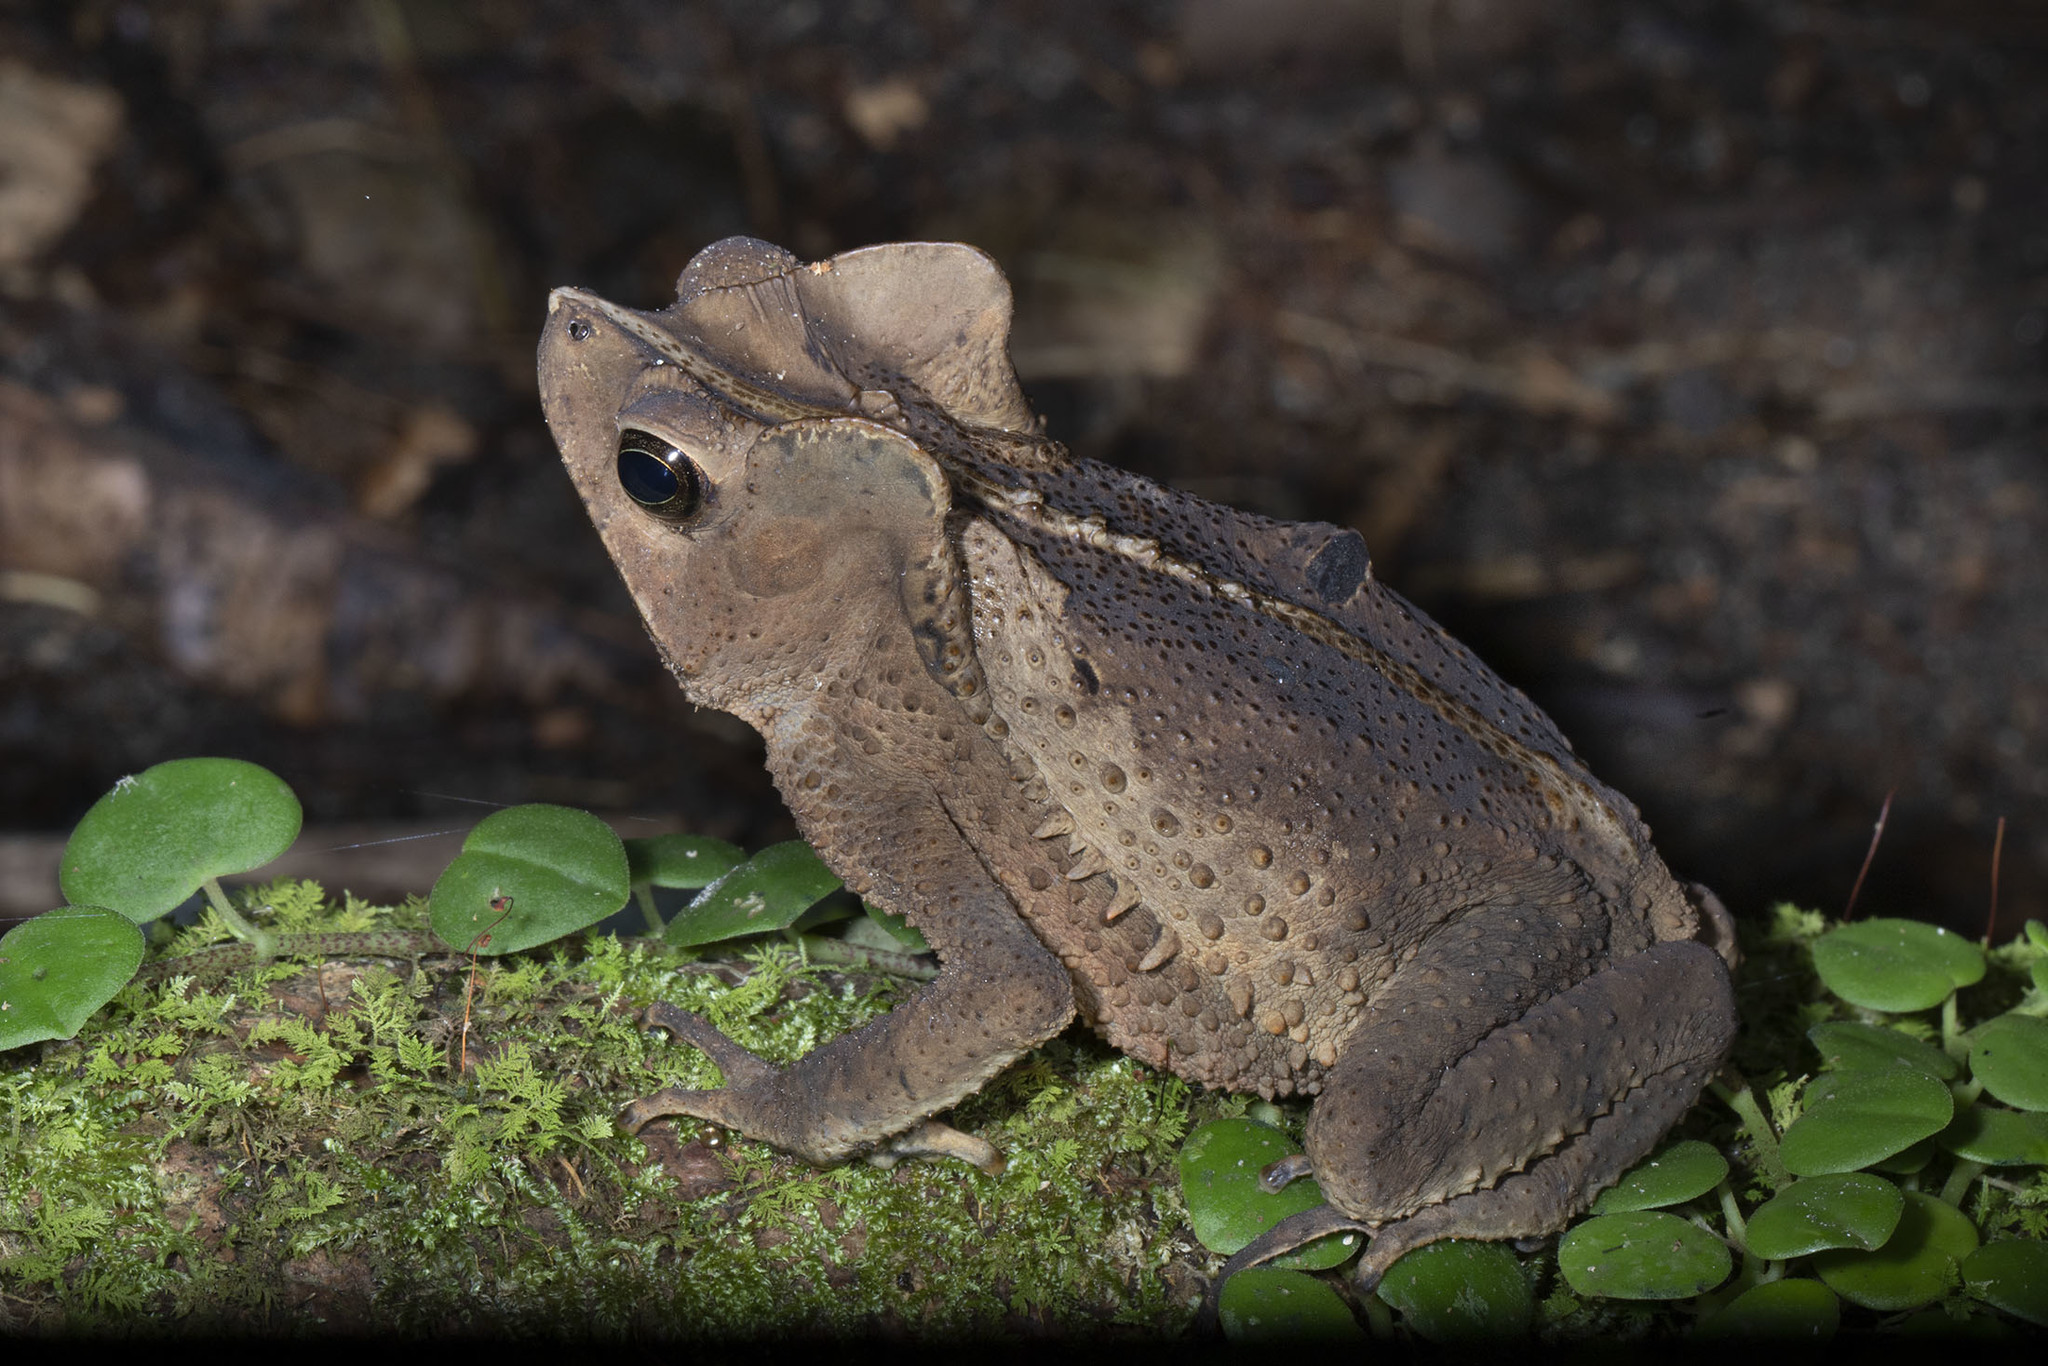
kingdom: Animalia
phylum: Chordata
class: Amphibia
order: Anura
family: Bufonidae
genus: Rhinella
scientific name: Rhinella margaritifera
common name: Mitred toad
